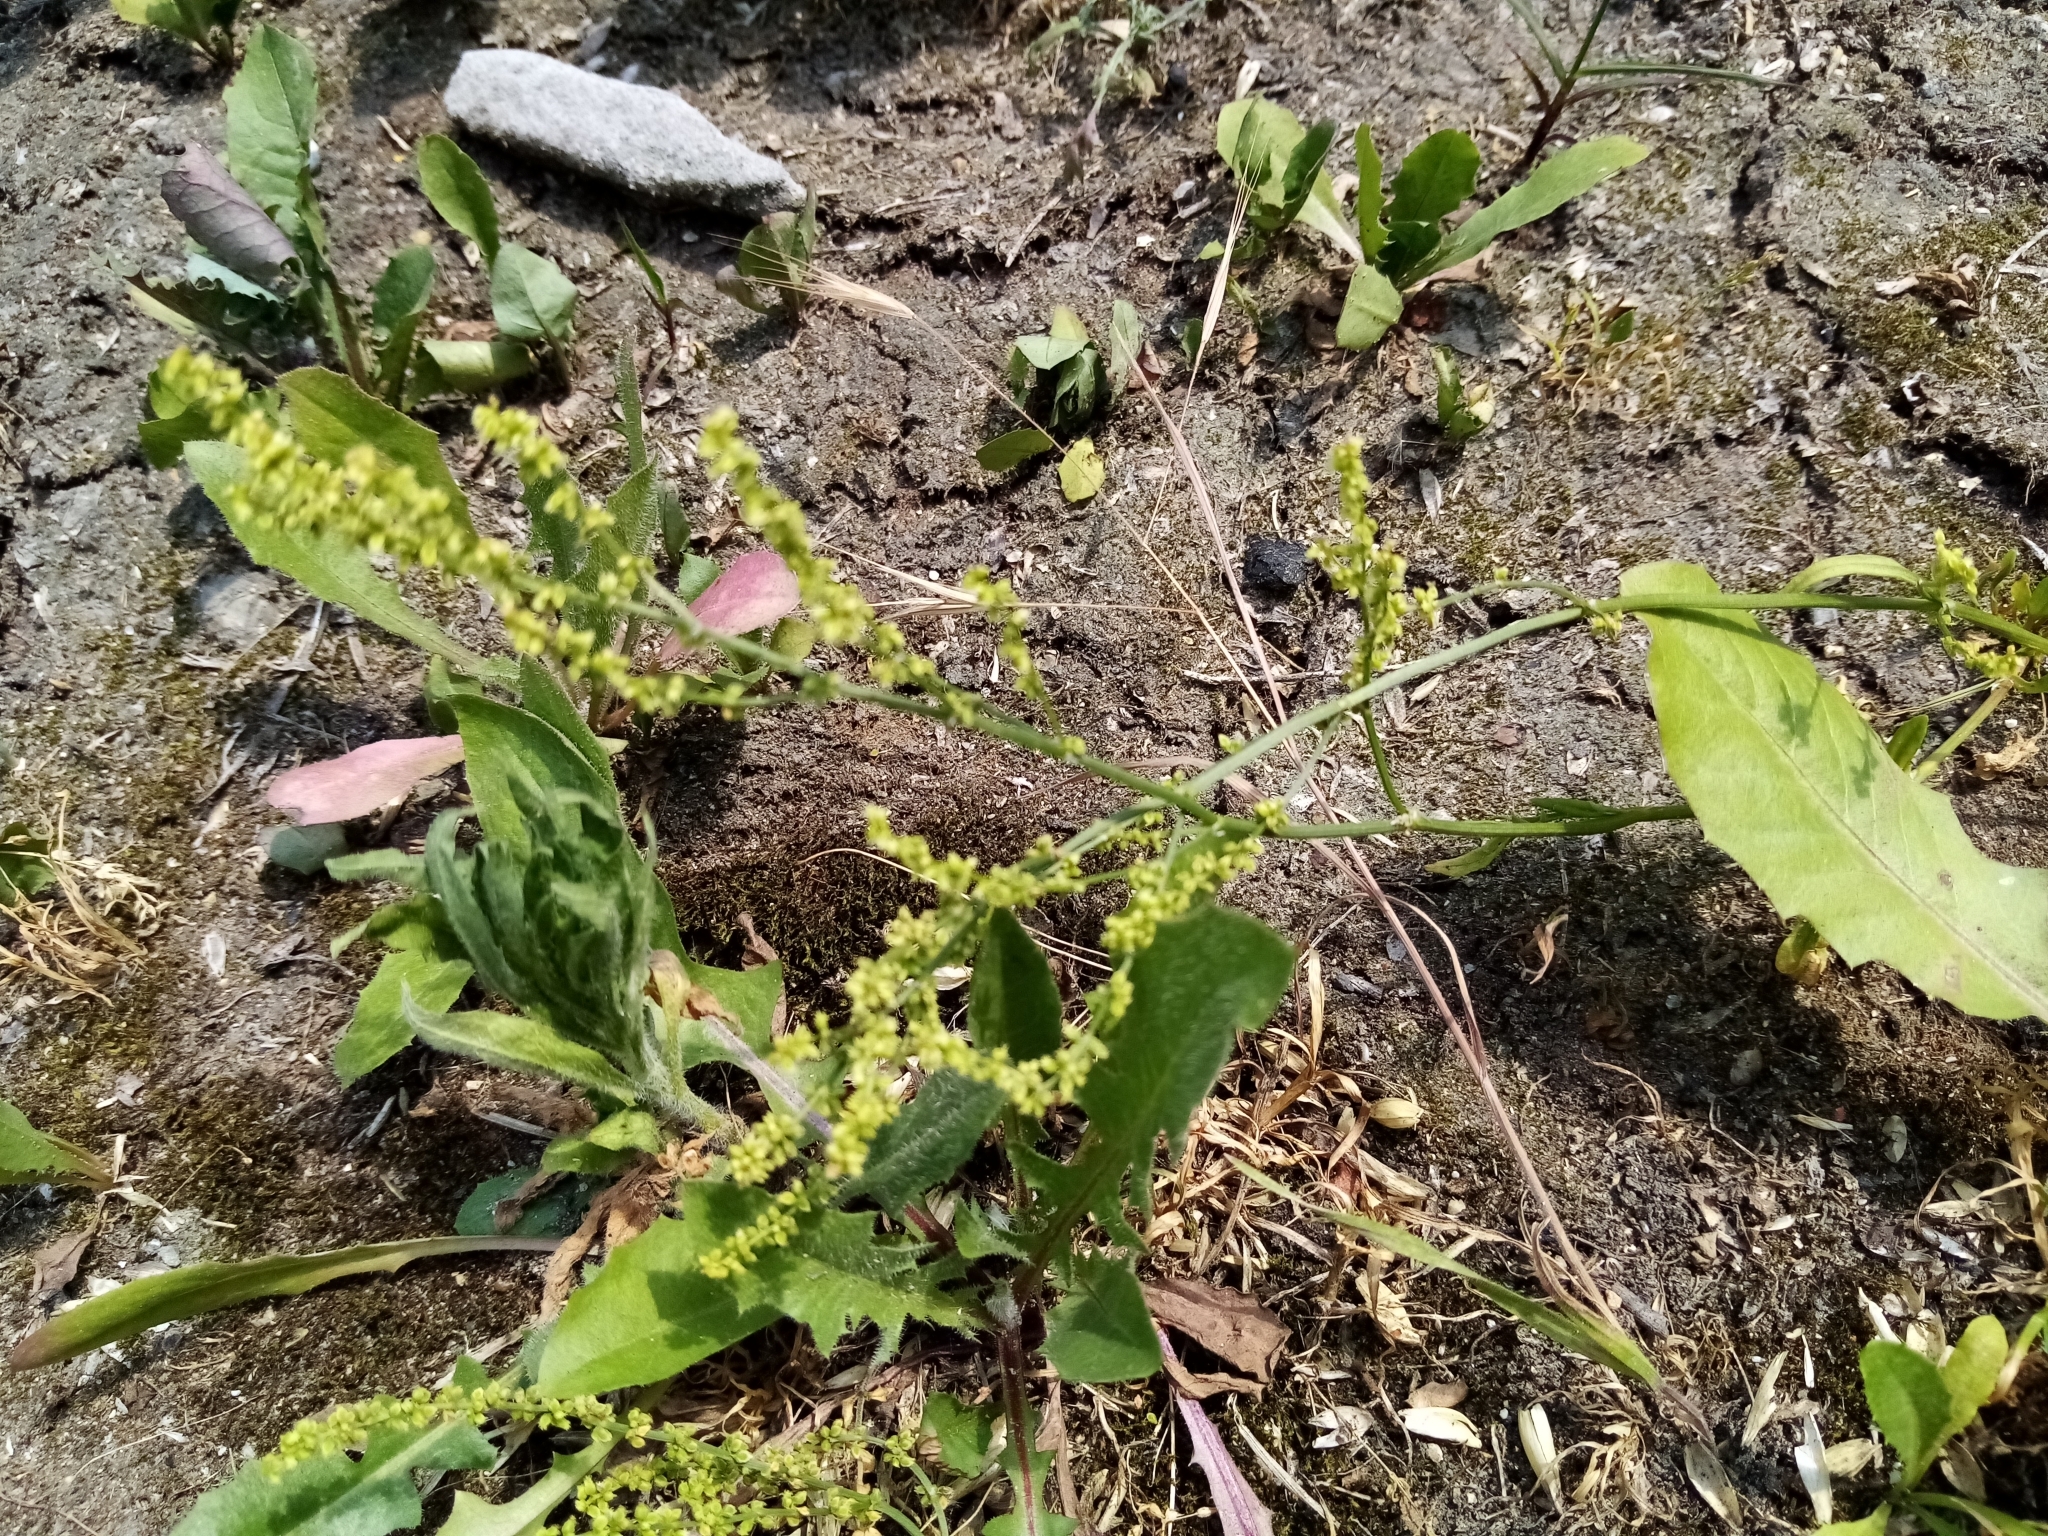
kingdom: Plantae
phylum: Tracheophyta
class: Magnoliopsida
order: Caryophyllales
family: Polygonaceae
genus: Rumex
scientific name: Rumex acetosella
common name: Common sheep sorrel
